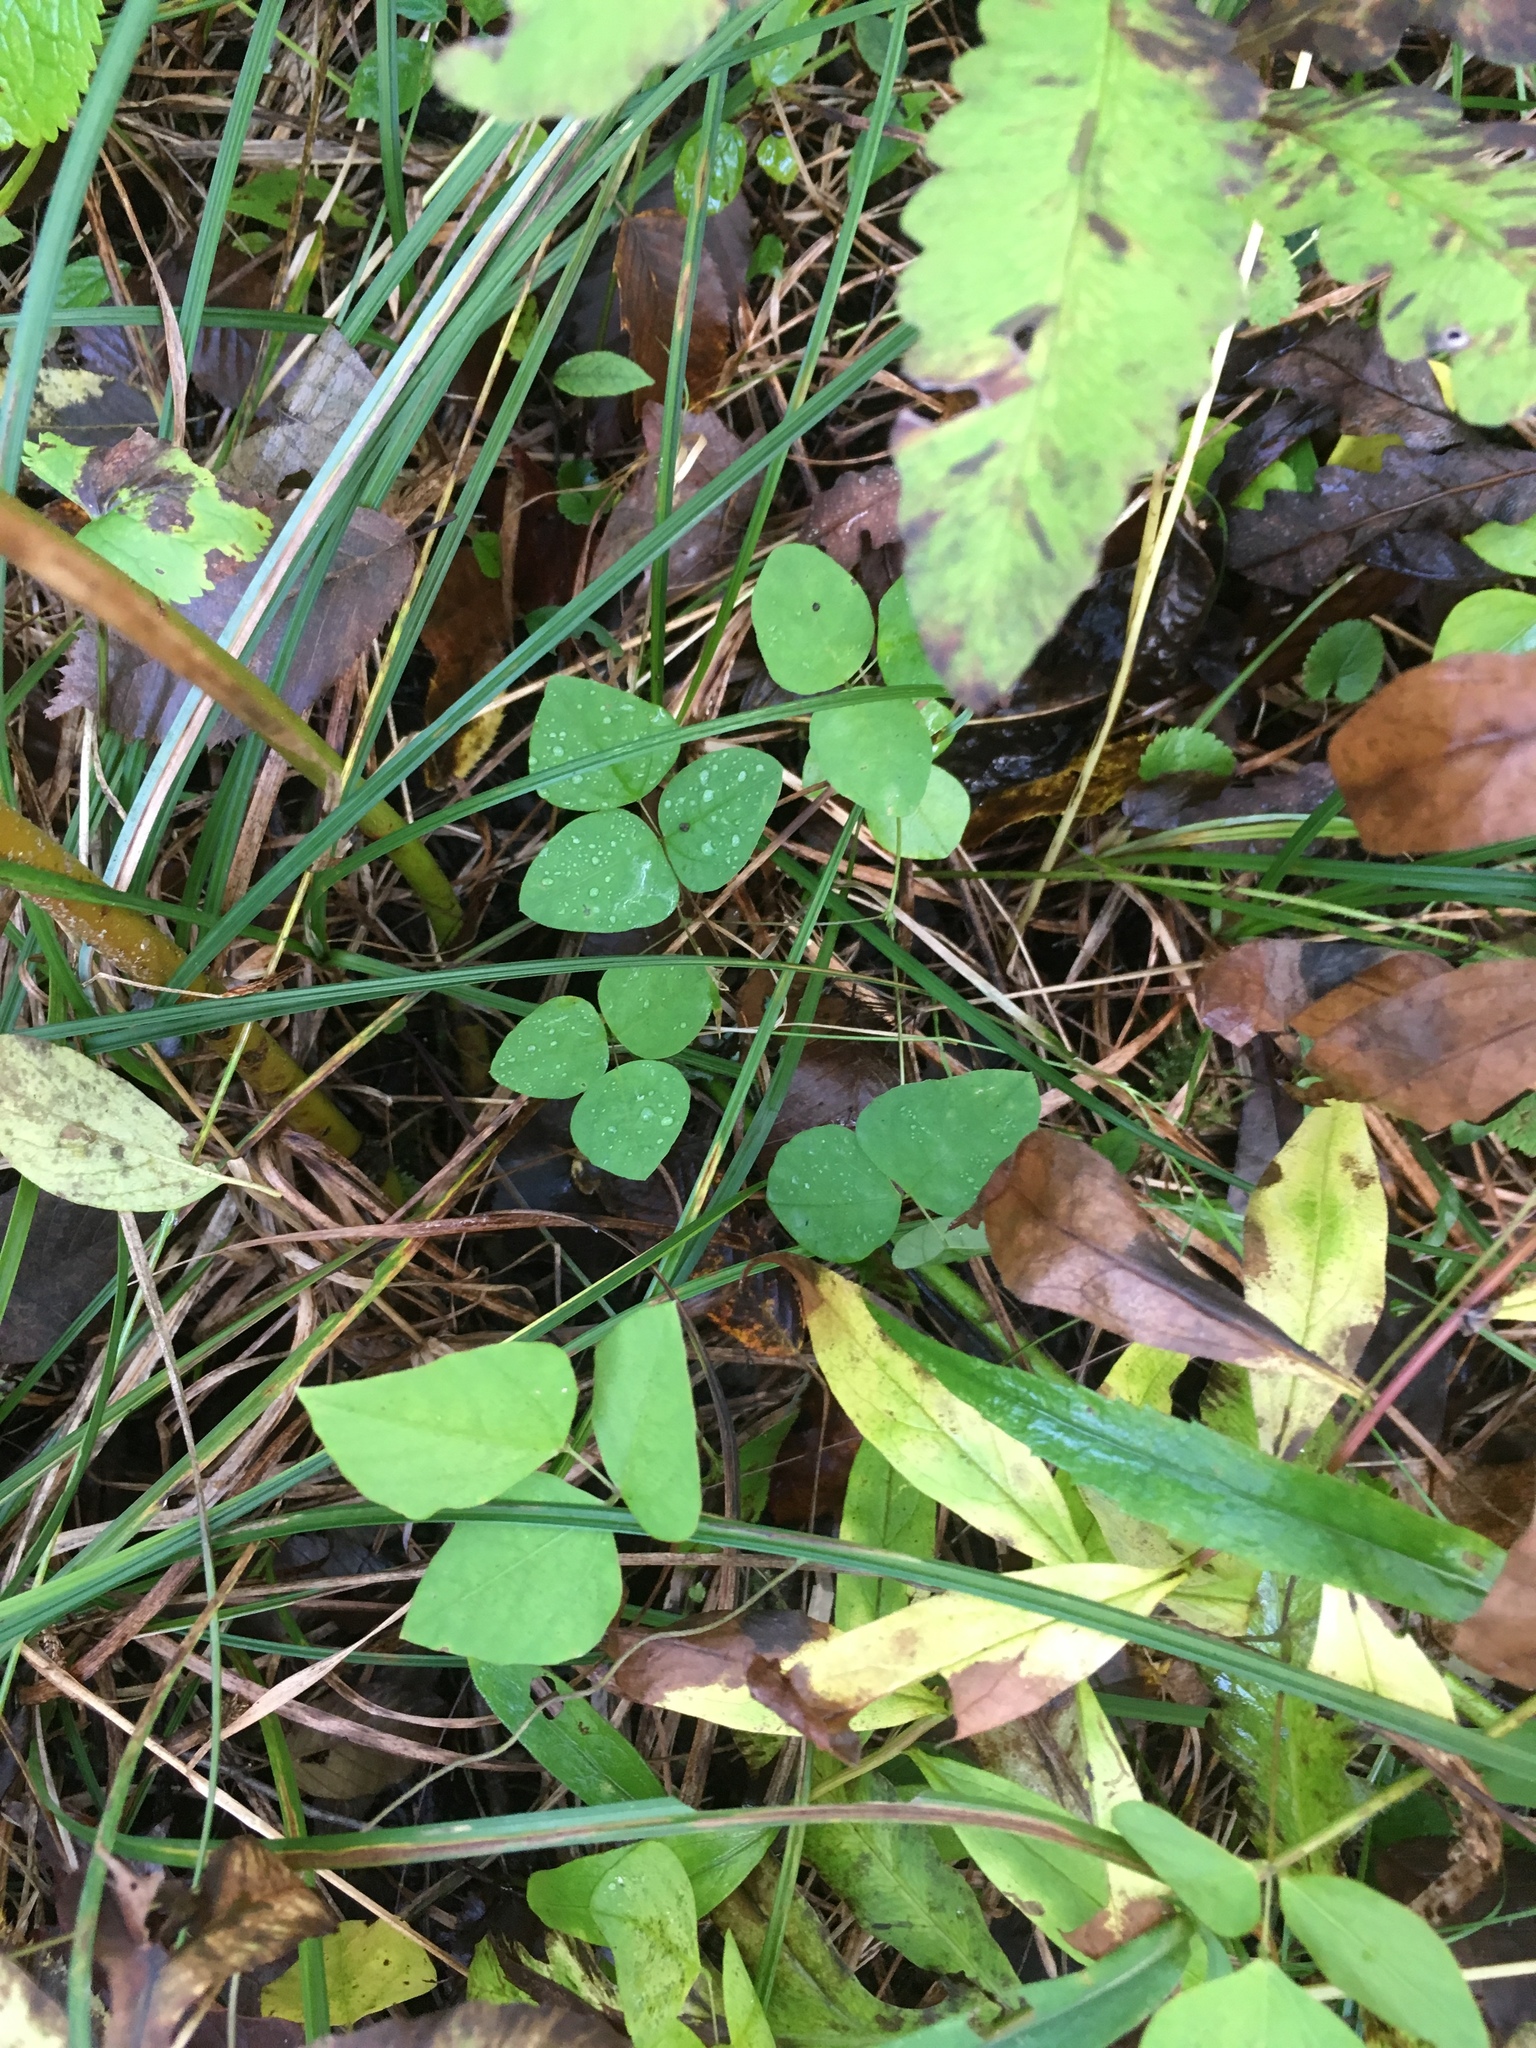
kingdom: Plantae
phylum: Tracheophyta
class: Magnoliopsida
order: Fabales
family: Fabaceae
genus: Amphicarpaea
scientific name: Amphicarpaea bracteata
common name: American hog peanut
